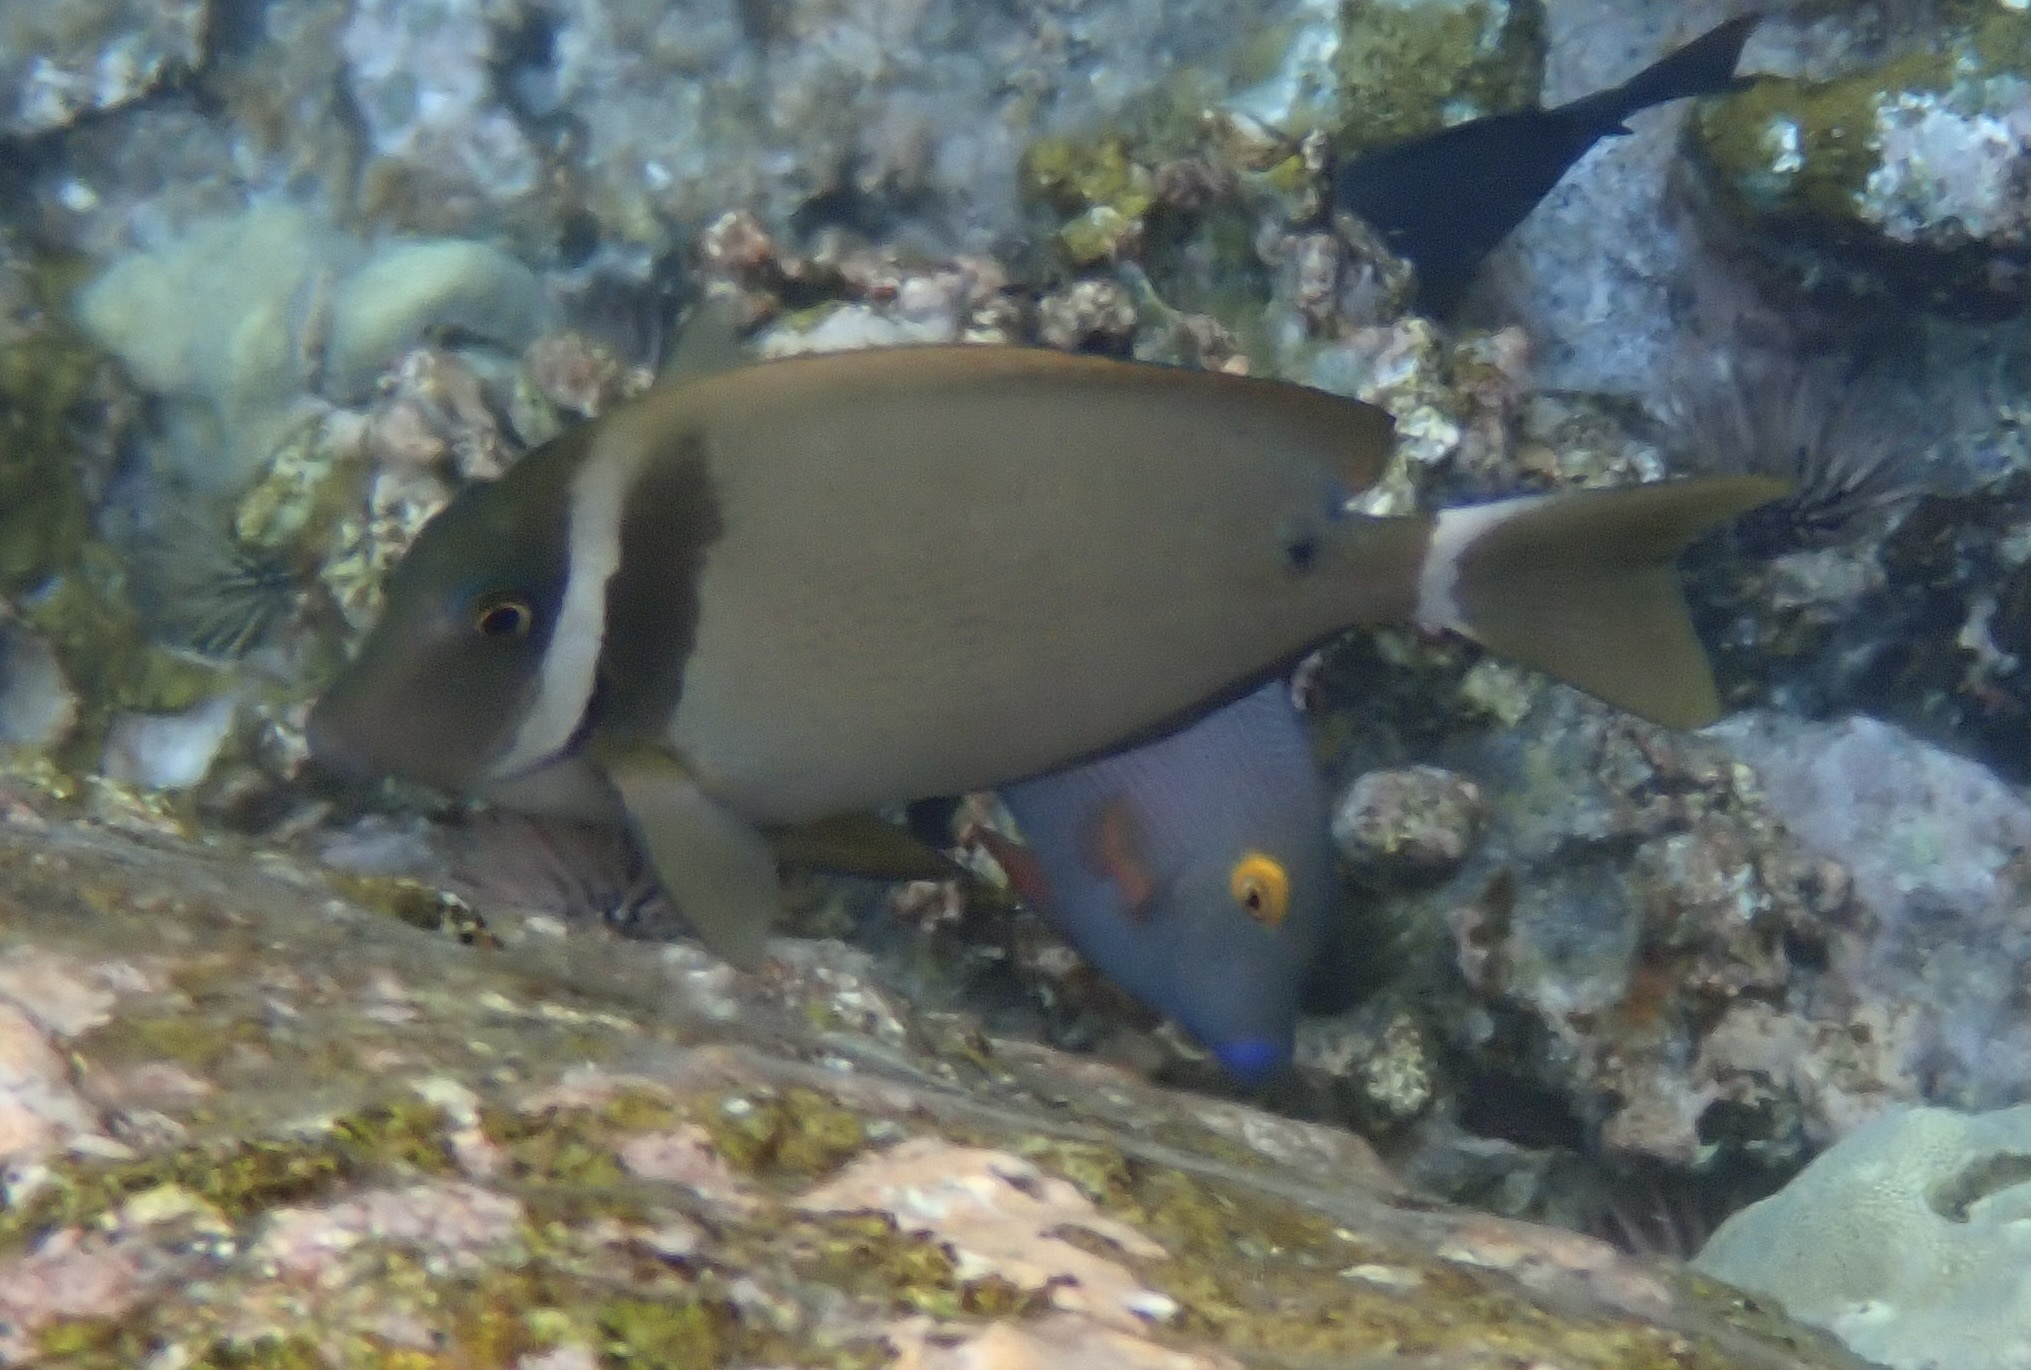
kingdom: Animalia
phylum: Chordata
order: Perciformes
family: Acanthuridae
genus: Acanthurus
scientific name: Acanthurus leucopareius
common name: Head-band surgeonfish
